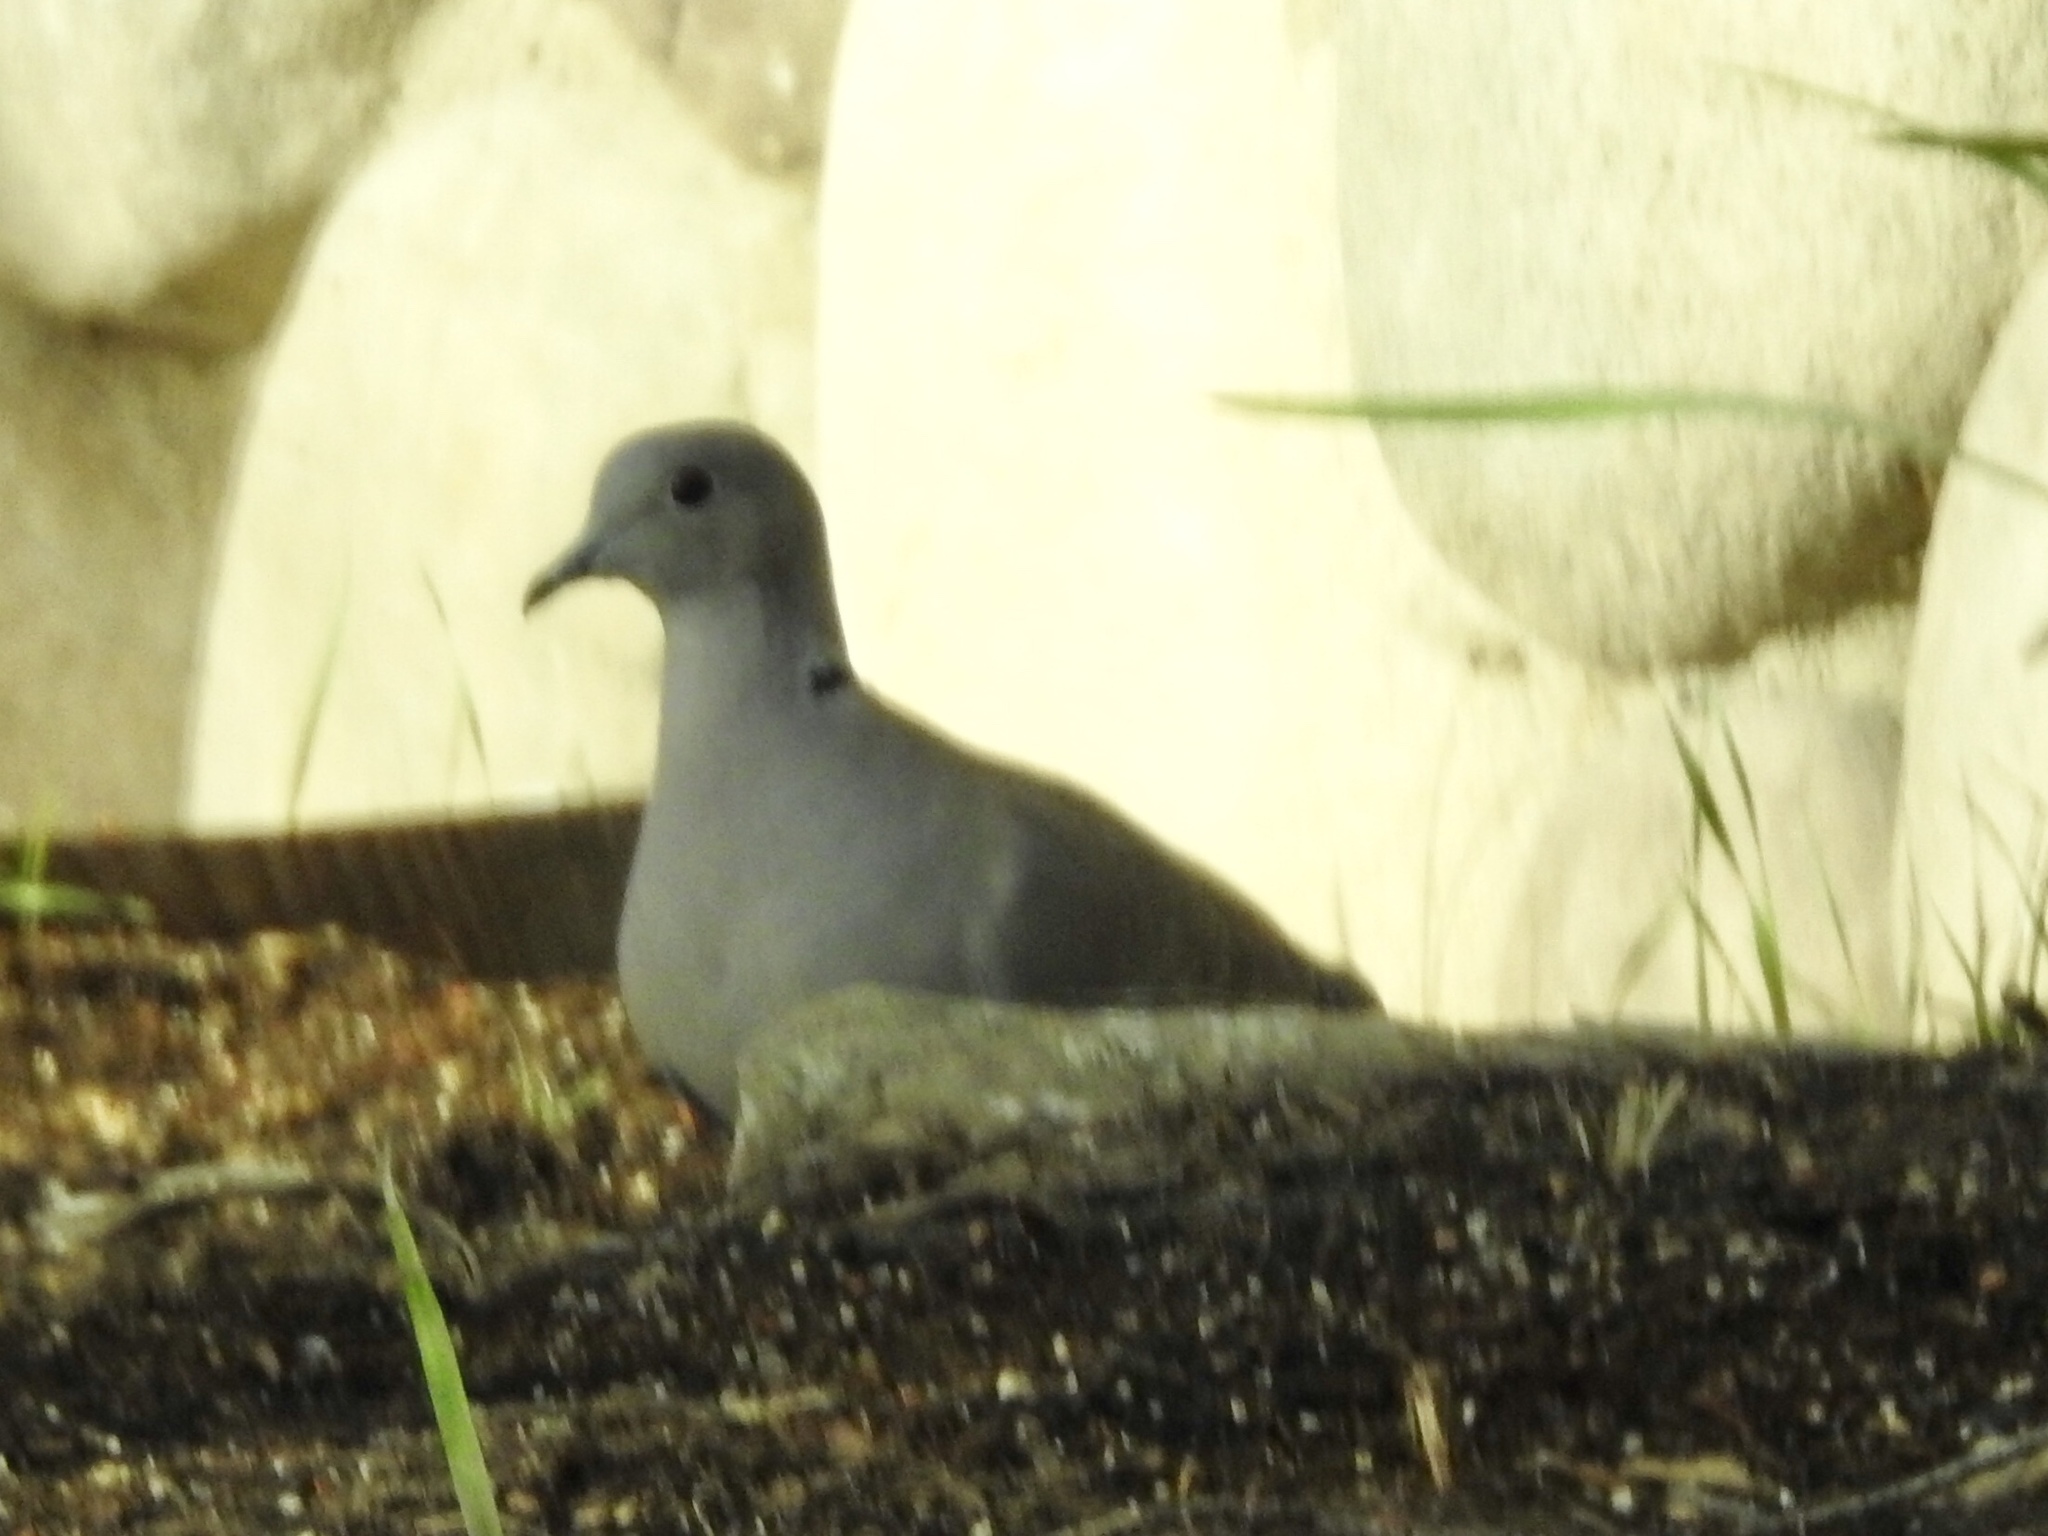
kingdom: Animalia
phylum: Chordata
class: Aves
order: Columbiformes
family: Columbidae
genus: Streptopelia
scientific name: Streptopelia decaocto
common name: Eurasian collared dove
